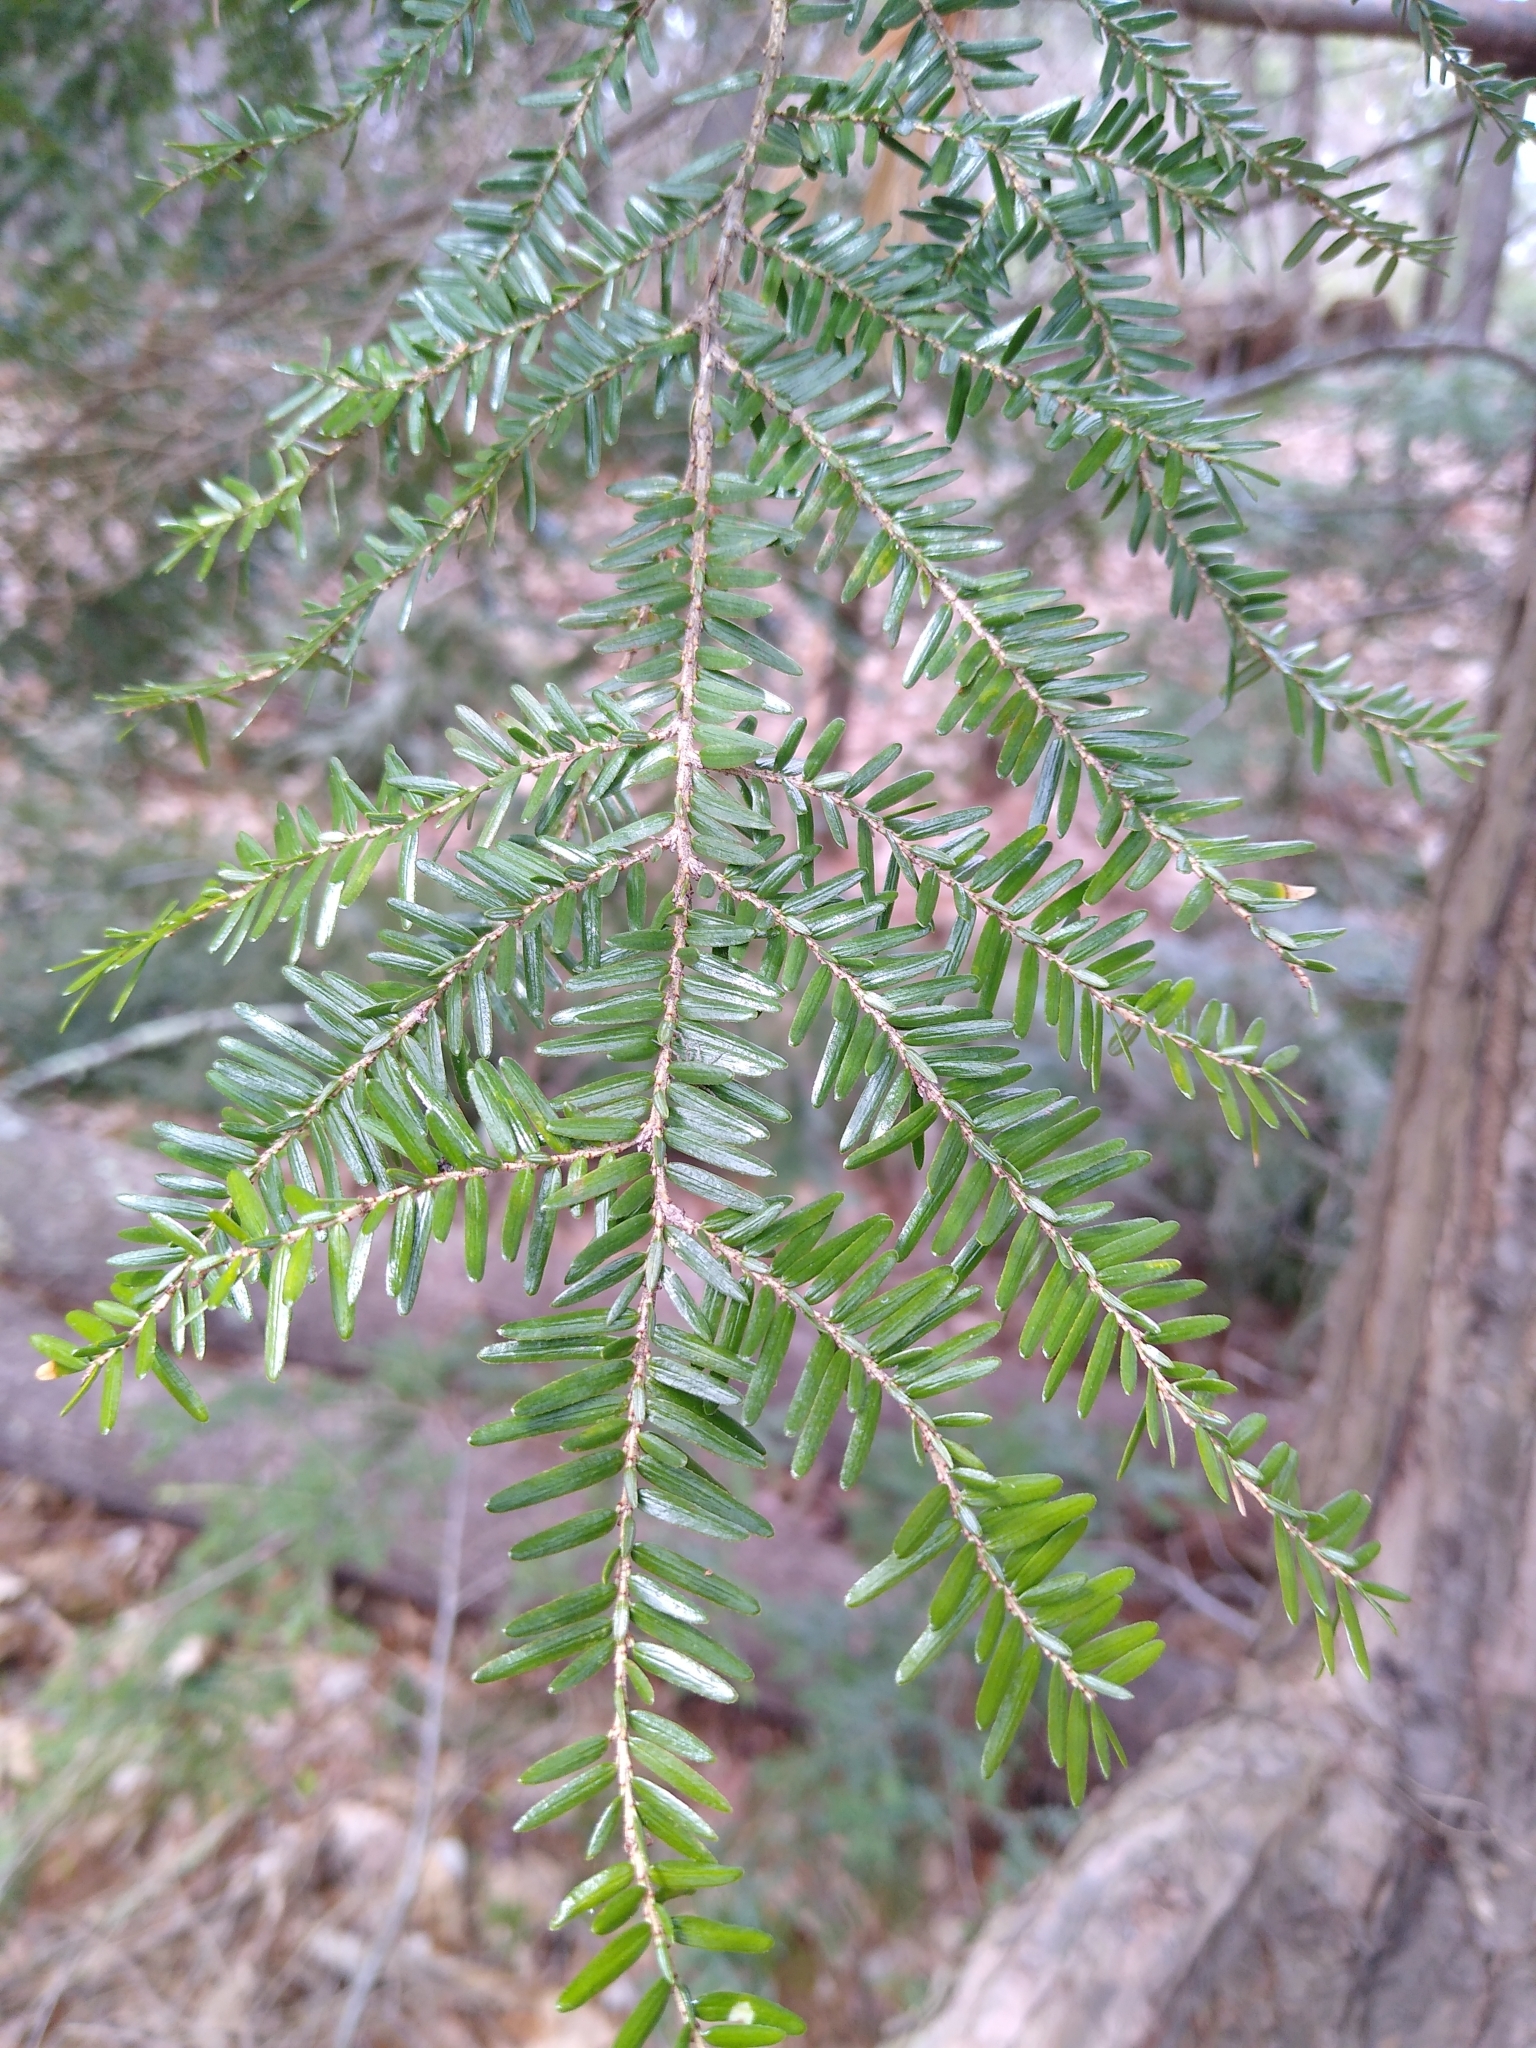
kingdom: Plantae
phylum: Tracheophyta
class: Pinopsida
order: Pinales
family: Pinaceae
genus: Tsuga
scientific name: Tsuga canadensis
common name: Eastern hemlock
